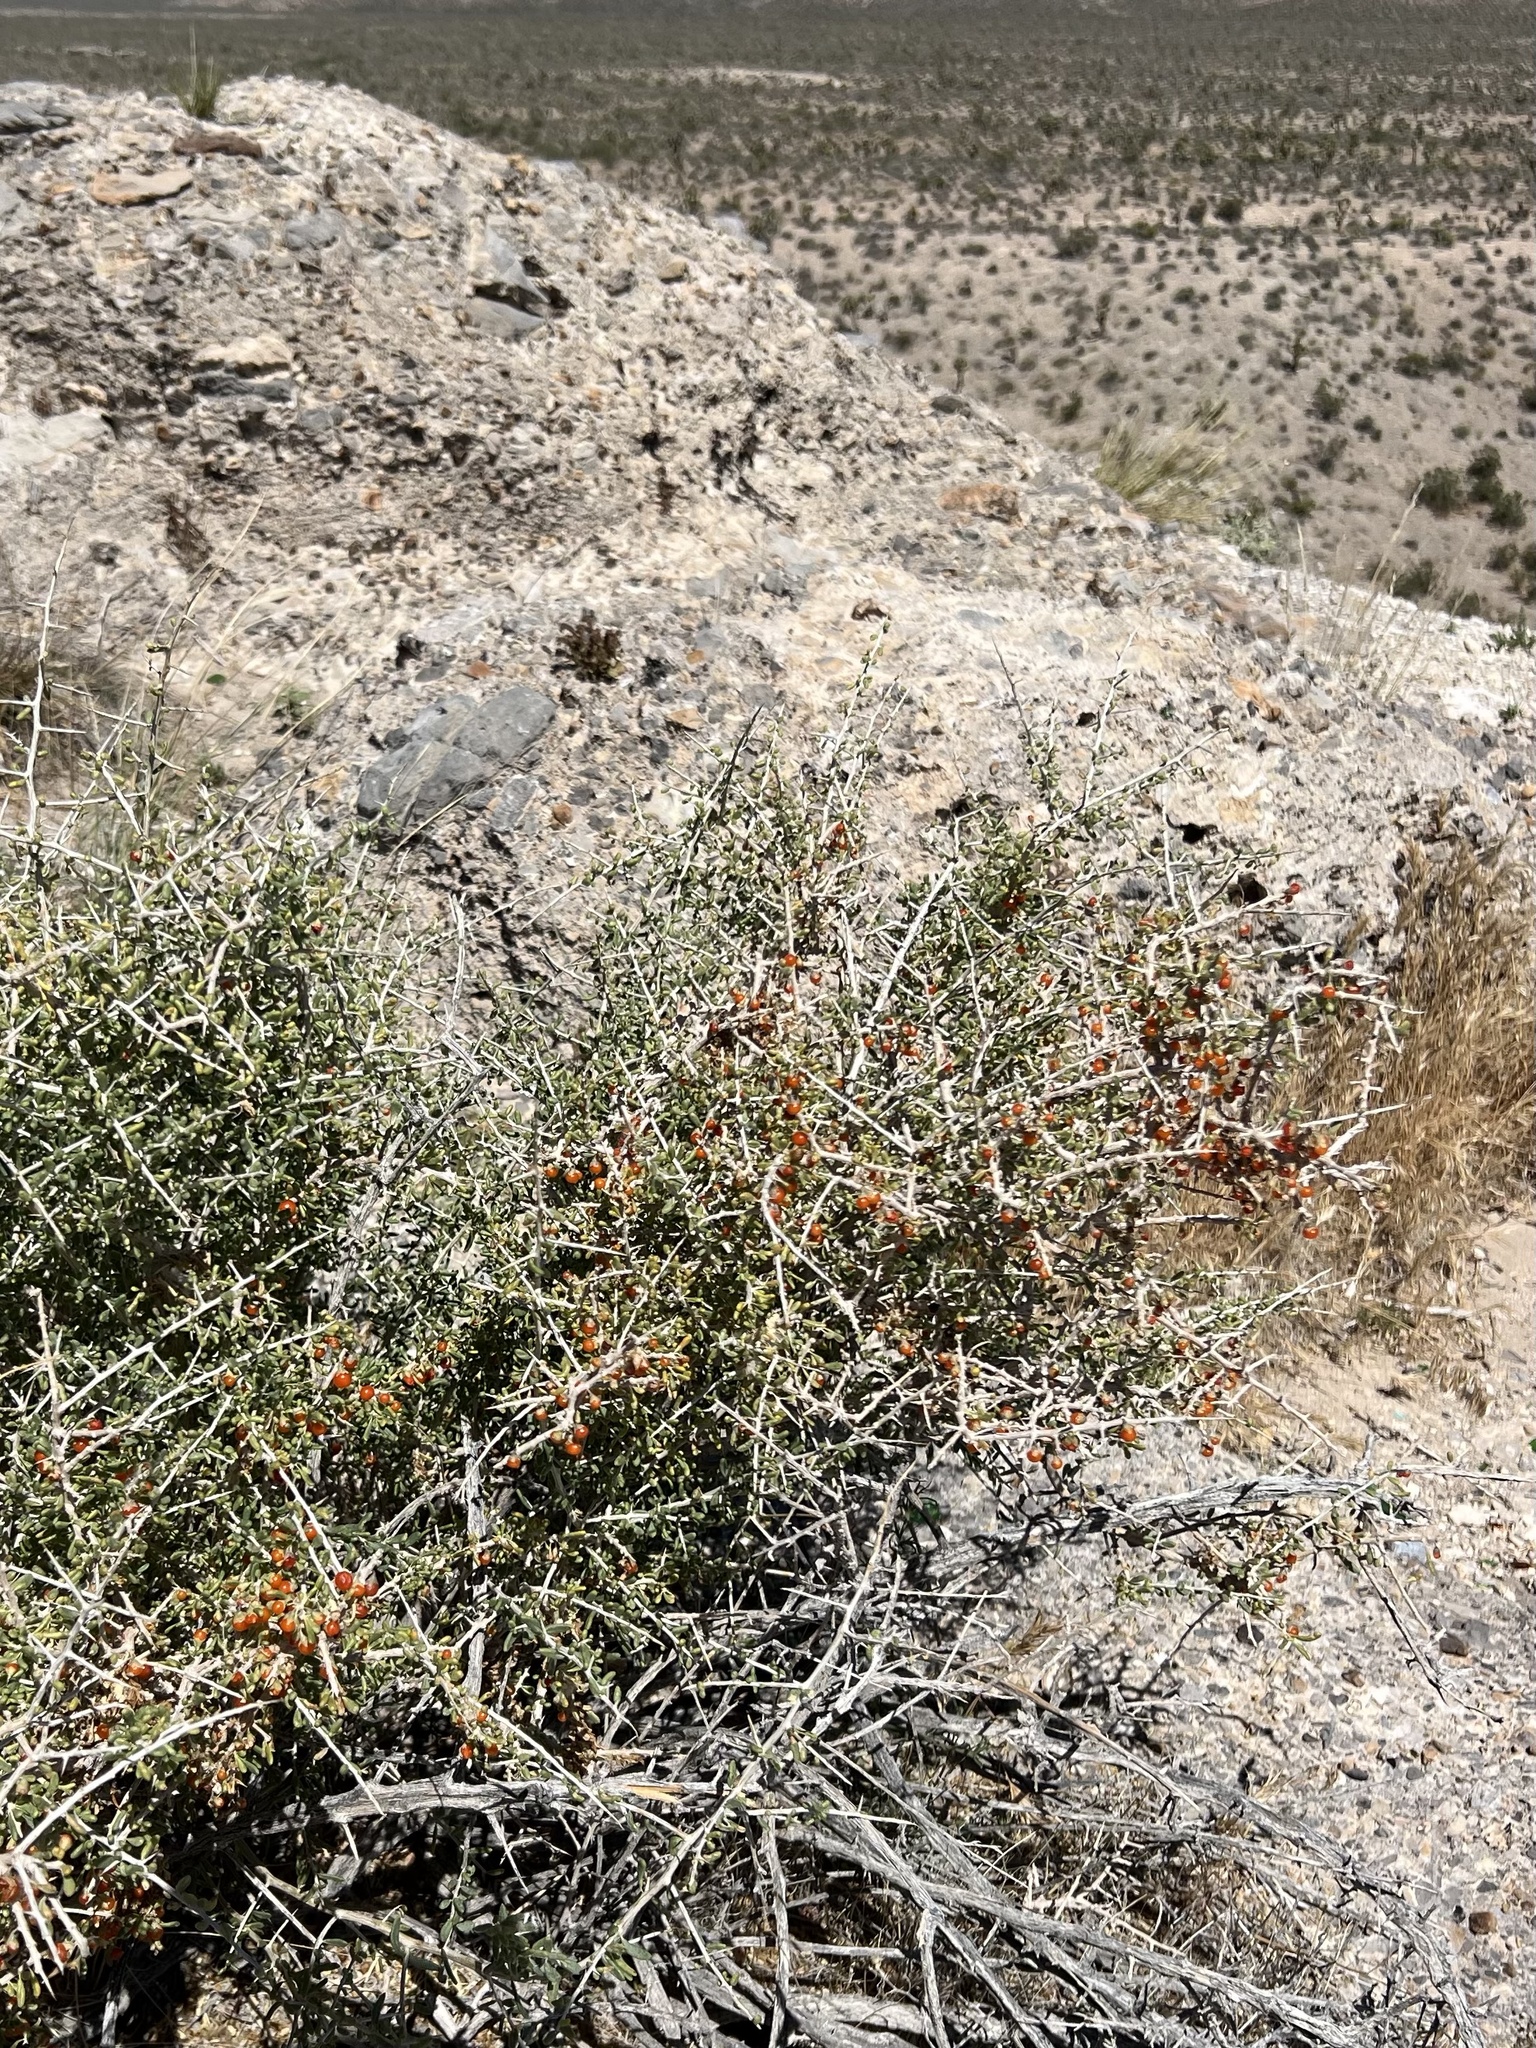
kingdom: Plantae
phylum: Tracheophyta
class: Magnoliopsida
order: Solanales
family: Solanaceae
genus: Lycium
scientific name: Lycium andersonii
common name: Water-jacket
